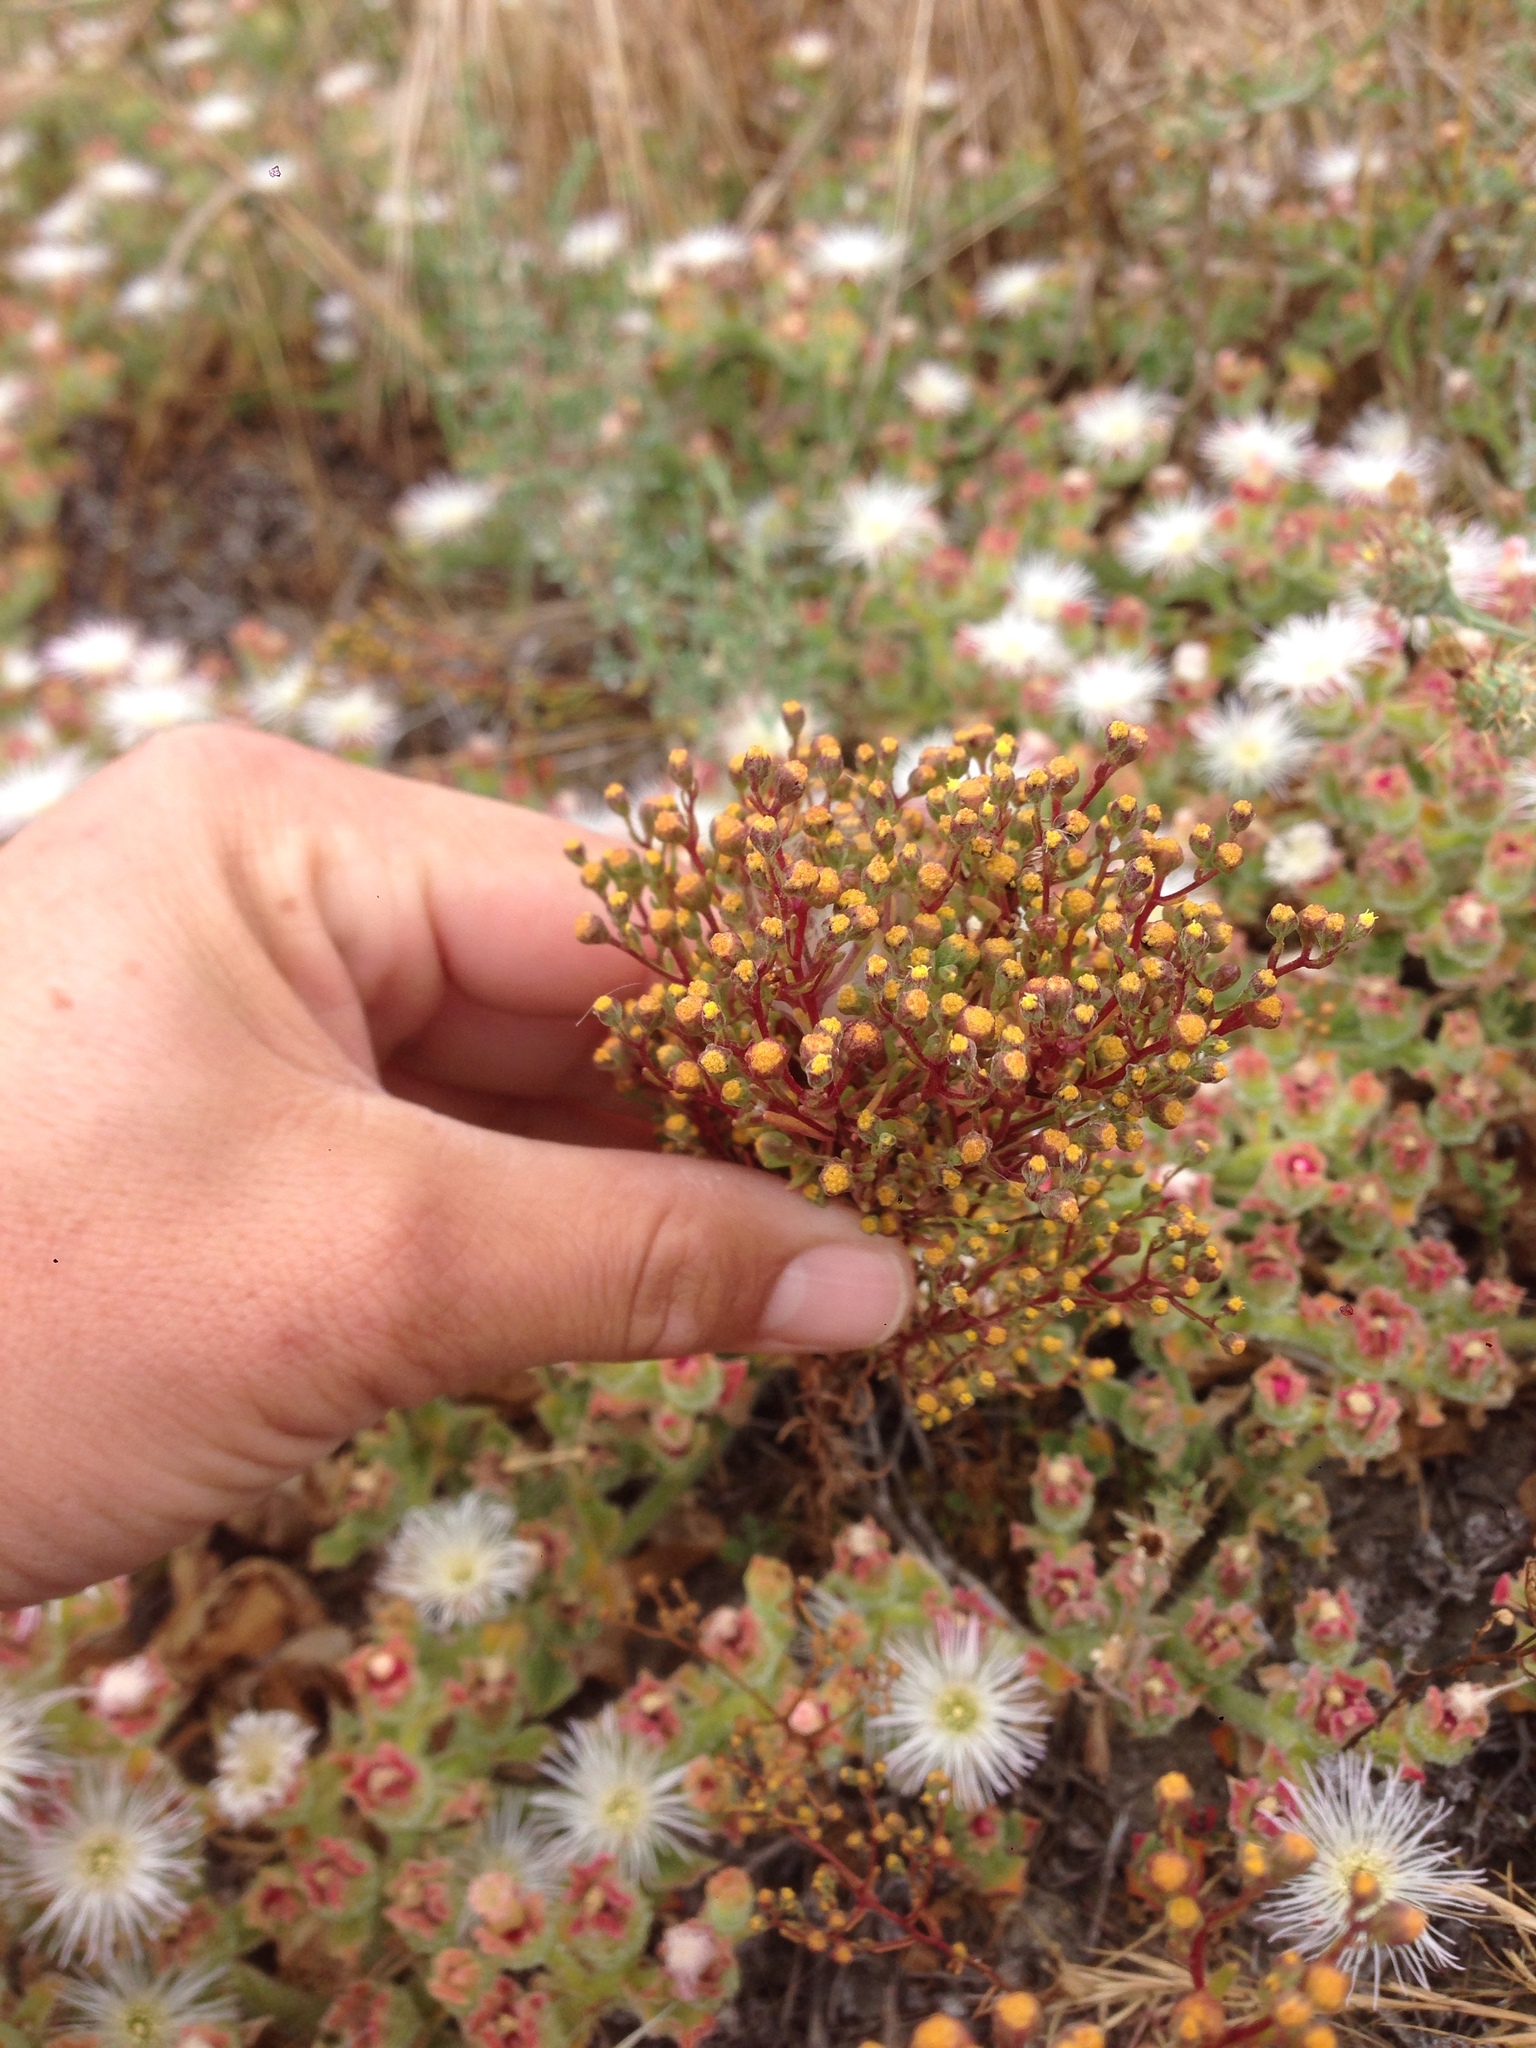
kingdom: Plantae
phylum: Tracheophyta
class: Magnoliopsida
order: Asterales
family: Asteraceae
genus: Amblyopappus
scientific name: Amblyopappus pusillus
